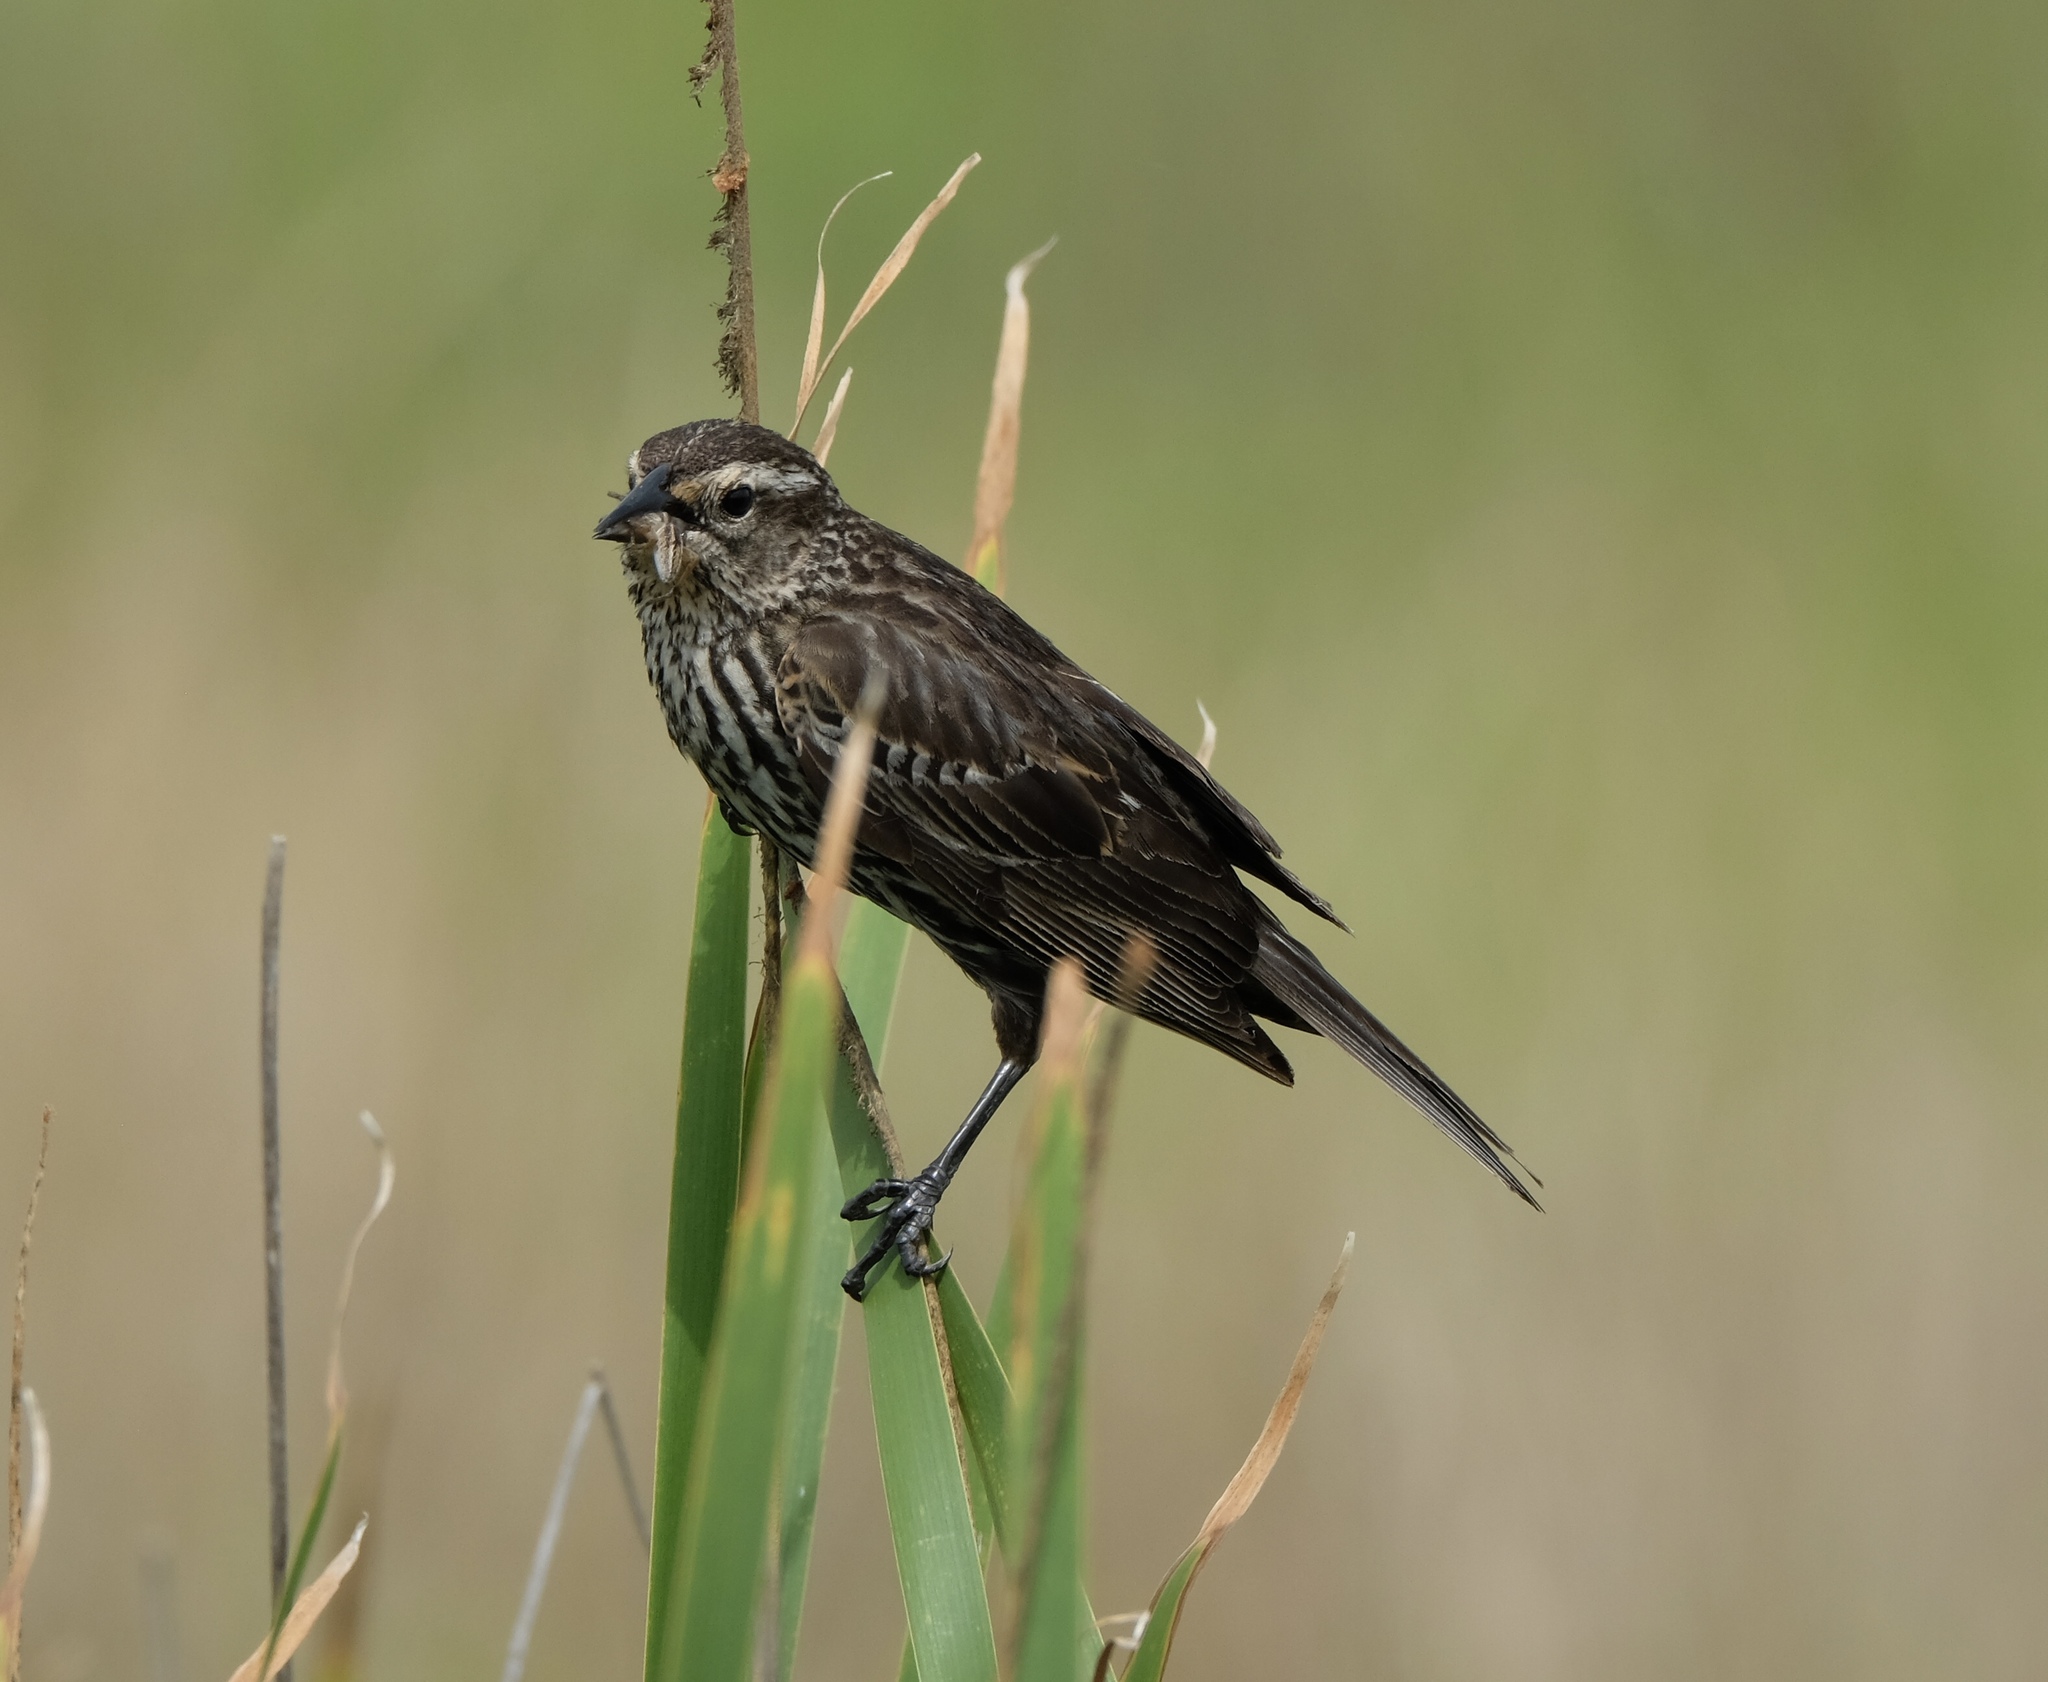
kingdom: Animalia
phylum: Chordata
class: Aves
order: Passeriformes
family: Icteridae
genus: Agelaius
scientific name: Agelaius phoeniceus
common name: Red-winged blackbird
